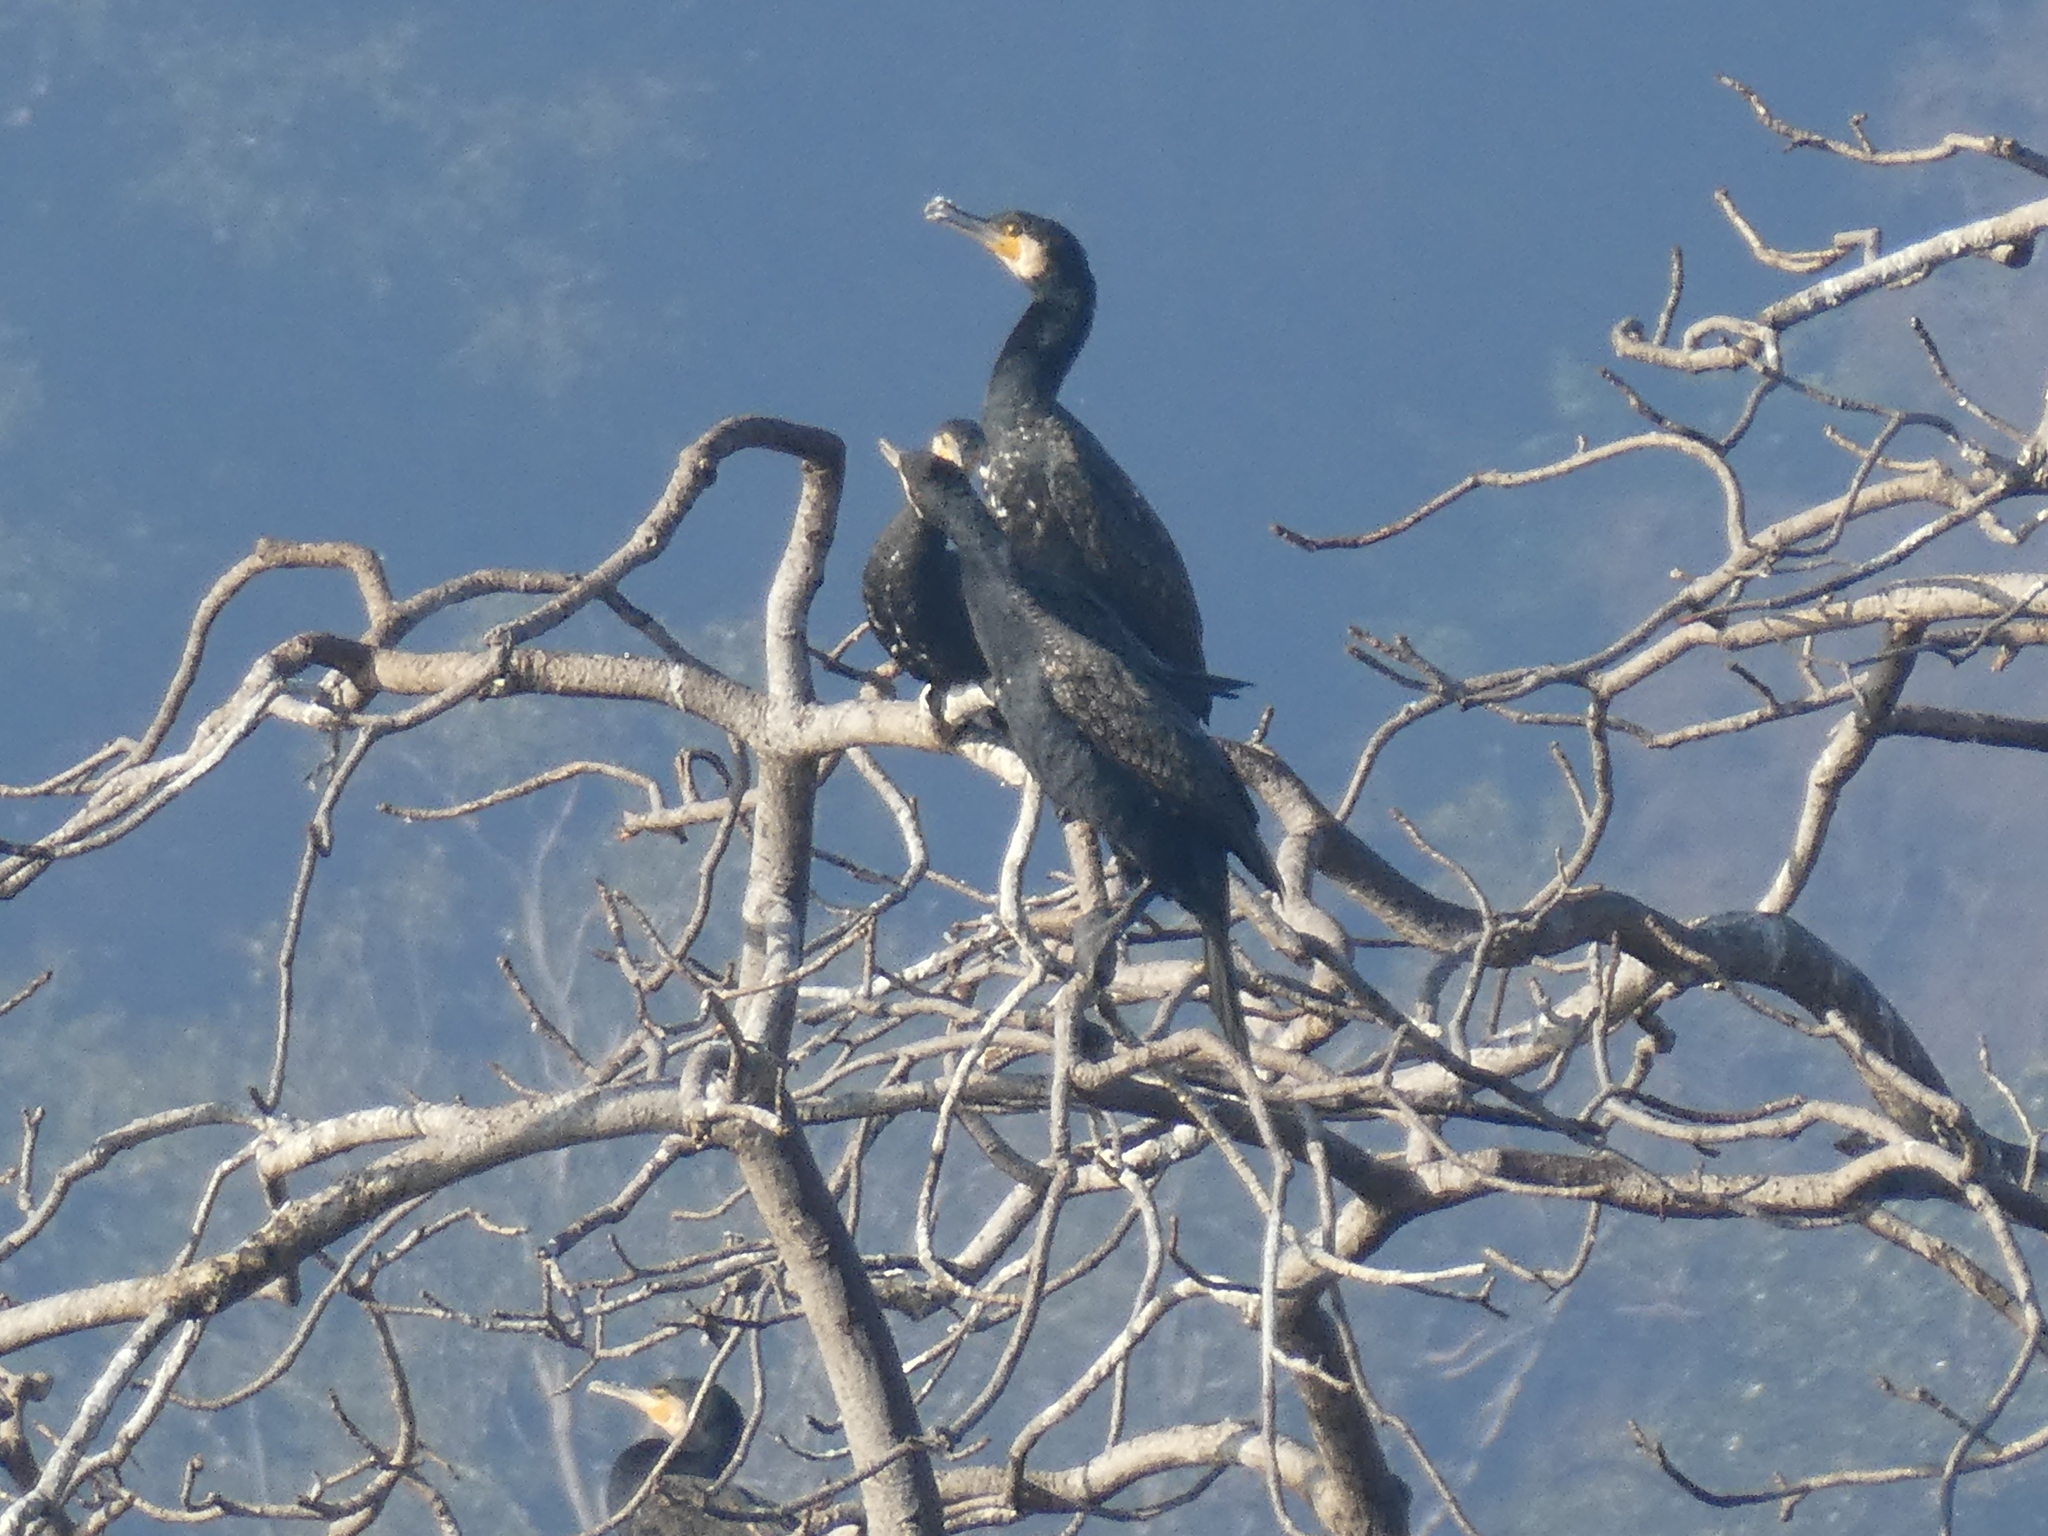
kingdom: Animalia
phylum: Chordata
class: Aves
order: Suliformes
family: Phalacrocoracidae
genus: Phalacrocorax
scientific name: Phalacrocorax carbo
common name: Great cormorant
